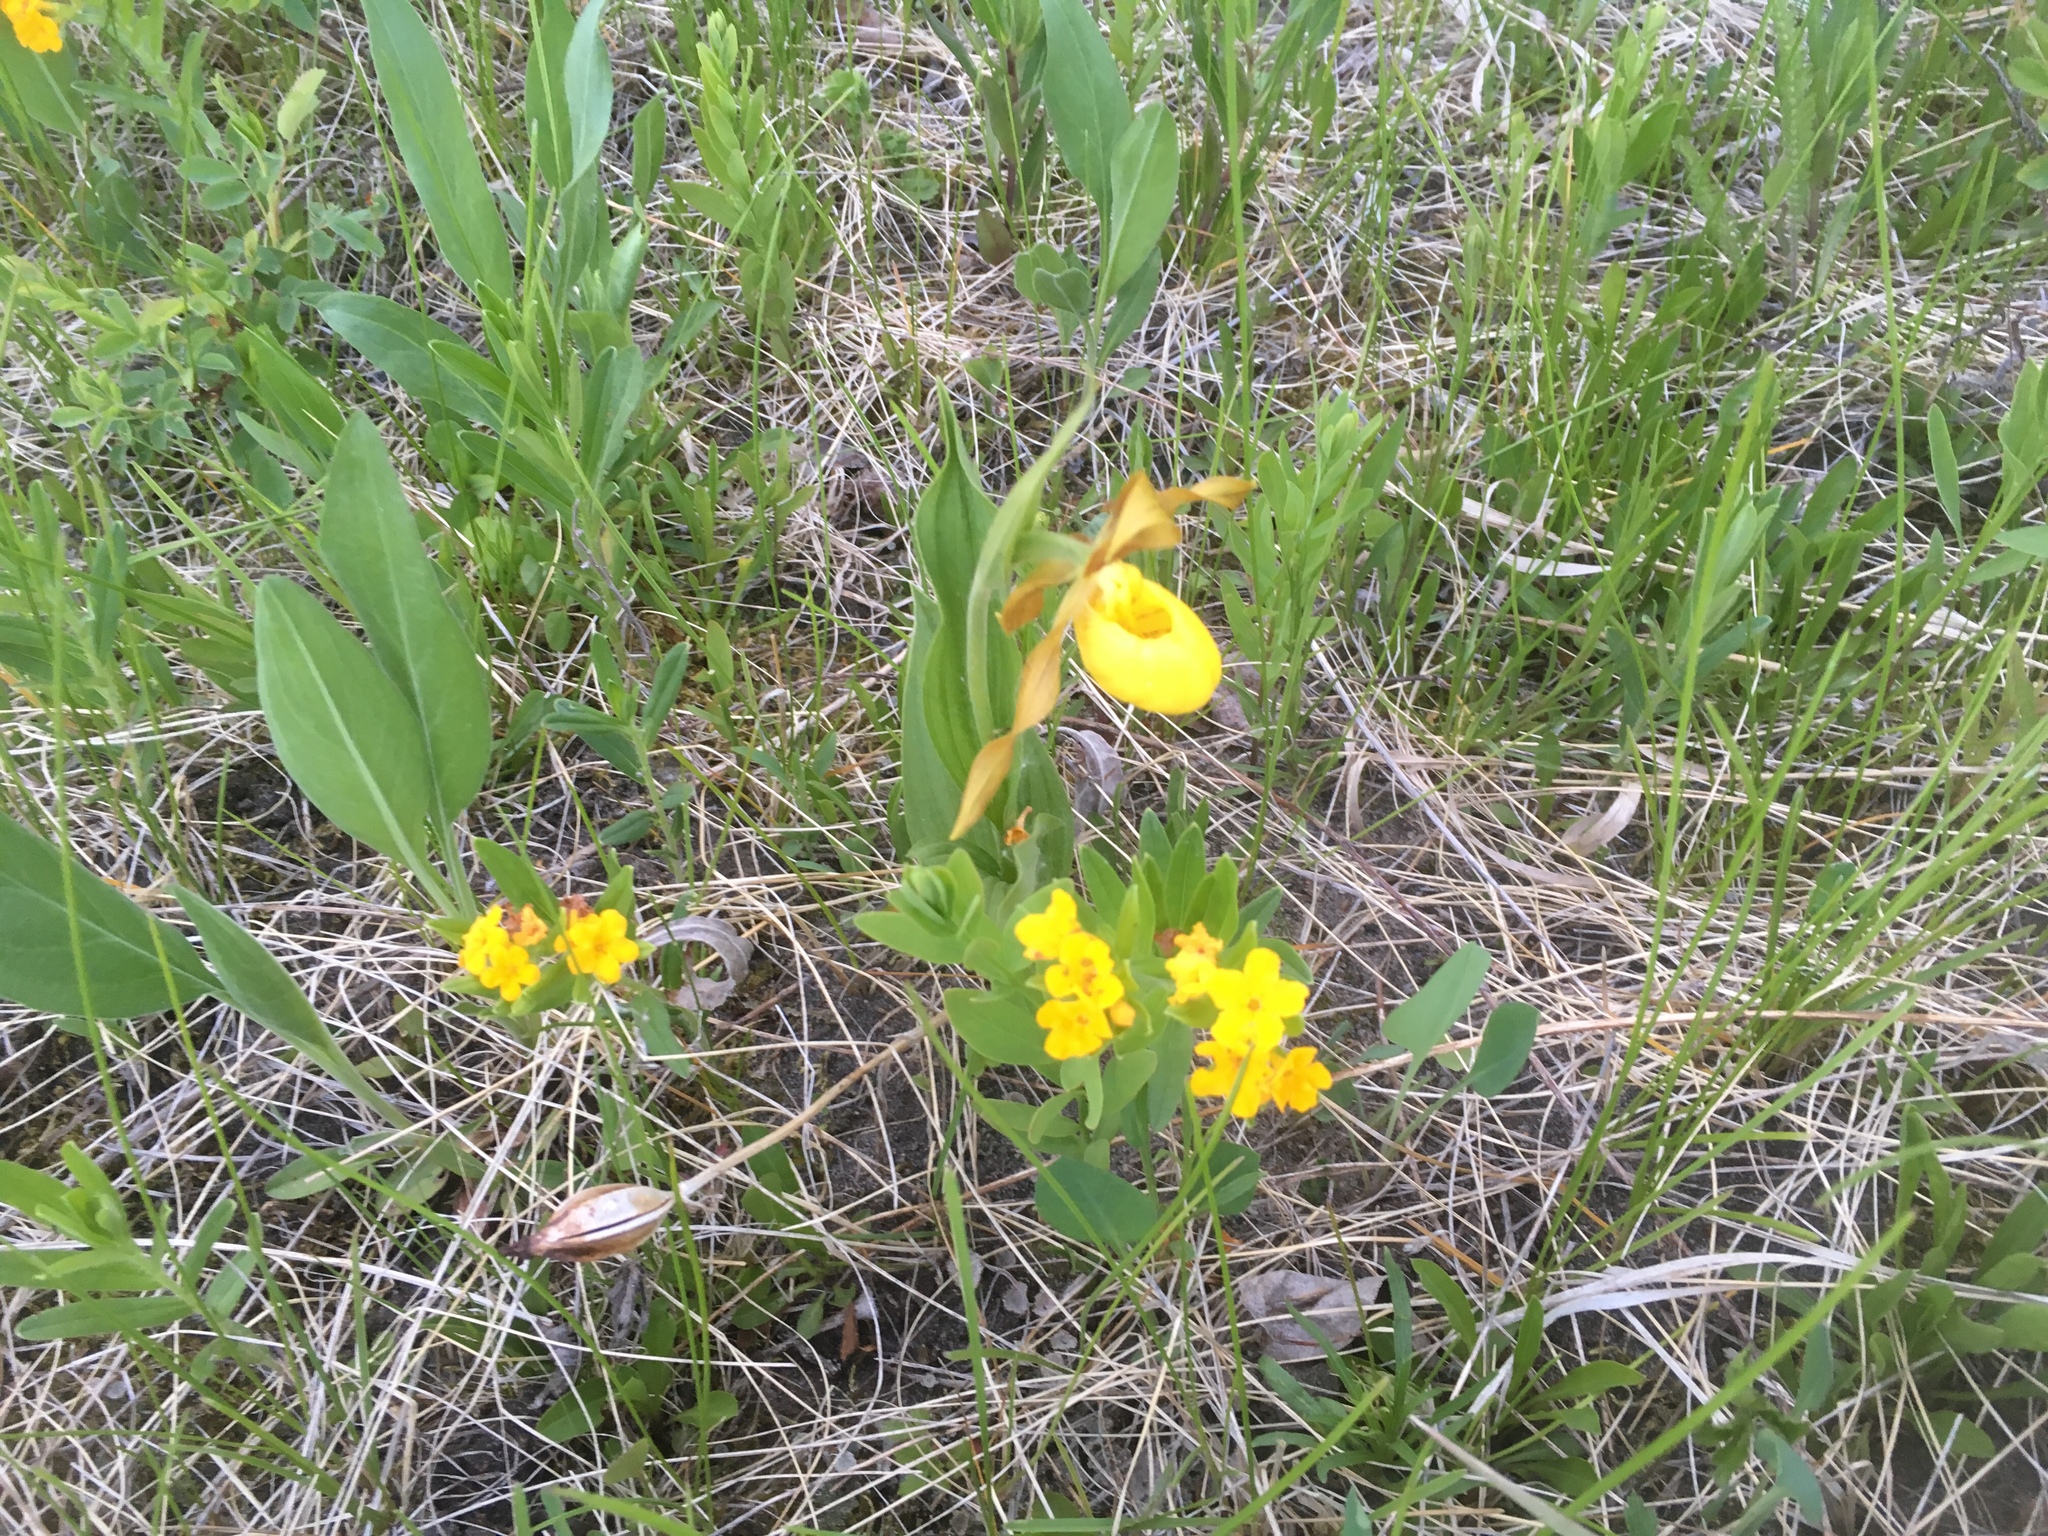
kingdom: Plantae
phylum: Tracheophyta
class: Liliopsida
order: Asparagales
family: Orchidaceae
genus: Cypripedium
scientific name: Cypripedium parviflorum
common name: American yellow lady's-slipper
